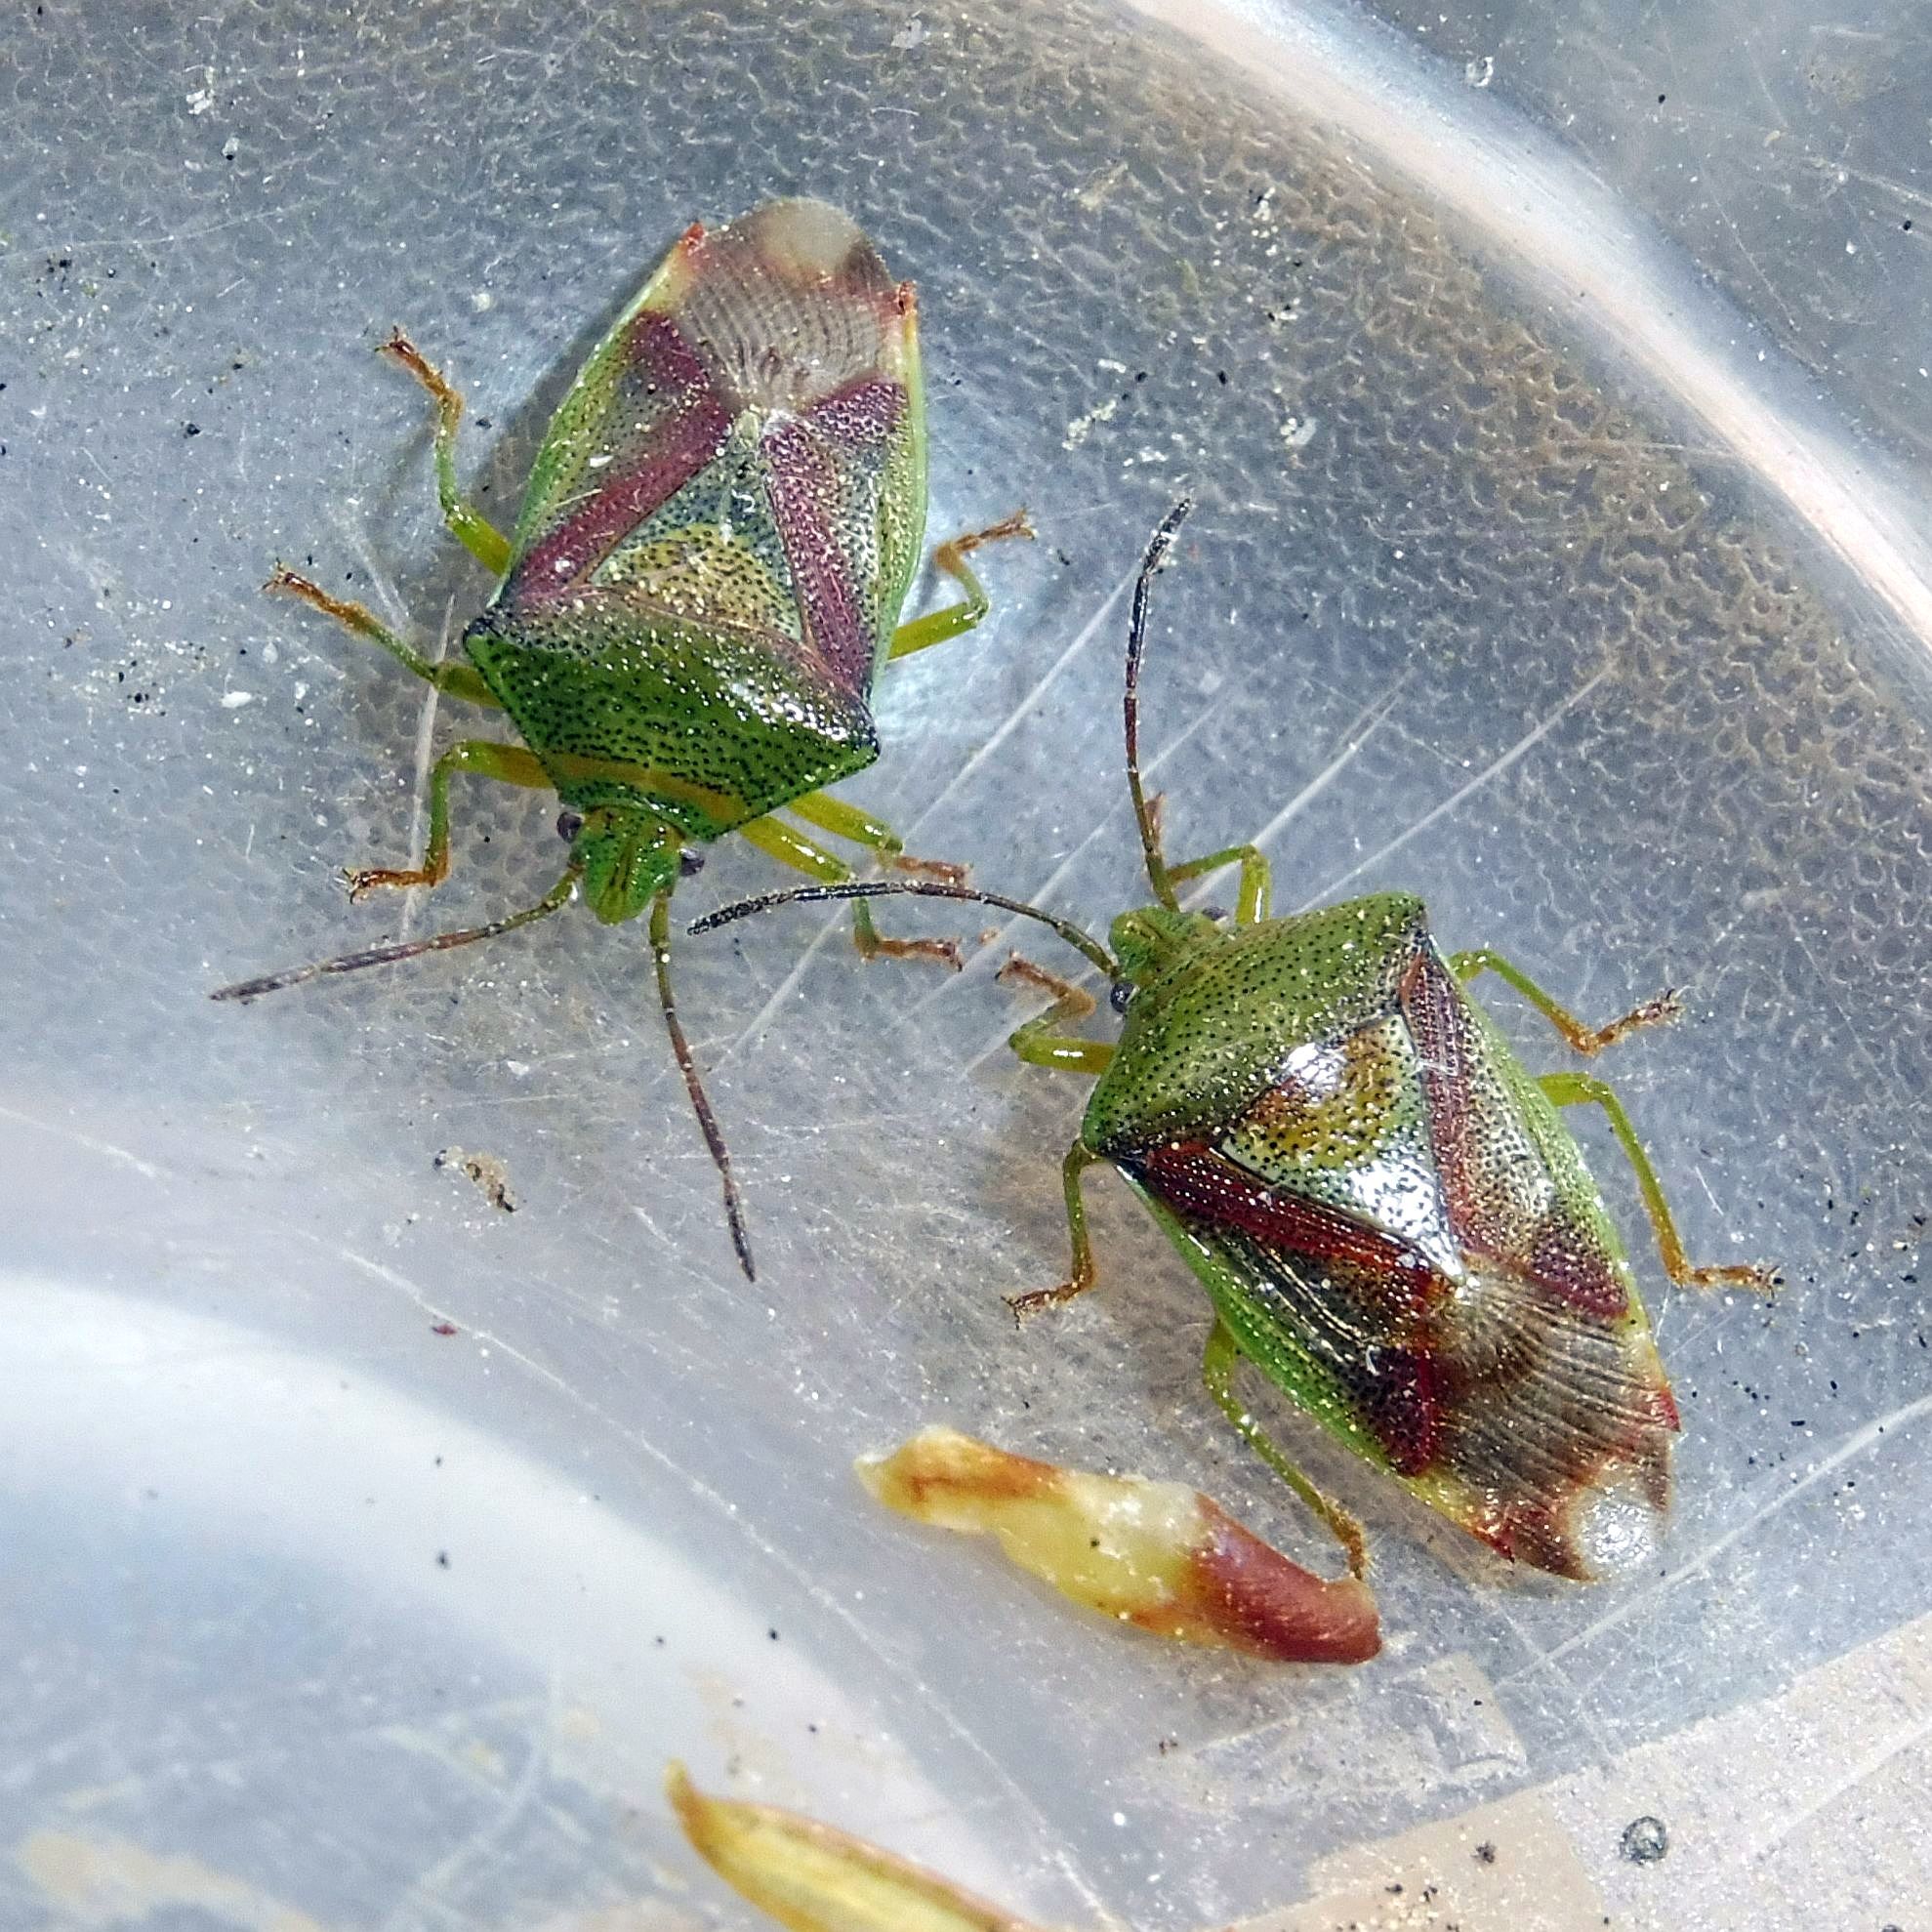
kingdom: Animalia
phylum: Arthropoda
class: Insecta
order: Hemiptera
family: Acanthosomatidae
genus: Elasmostethus
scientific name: Elasmostethus interstinctus
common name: Birch shieldbug
